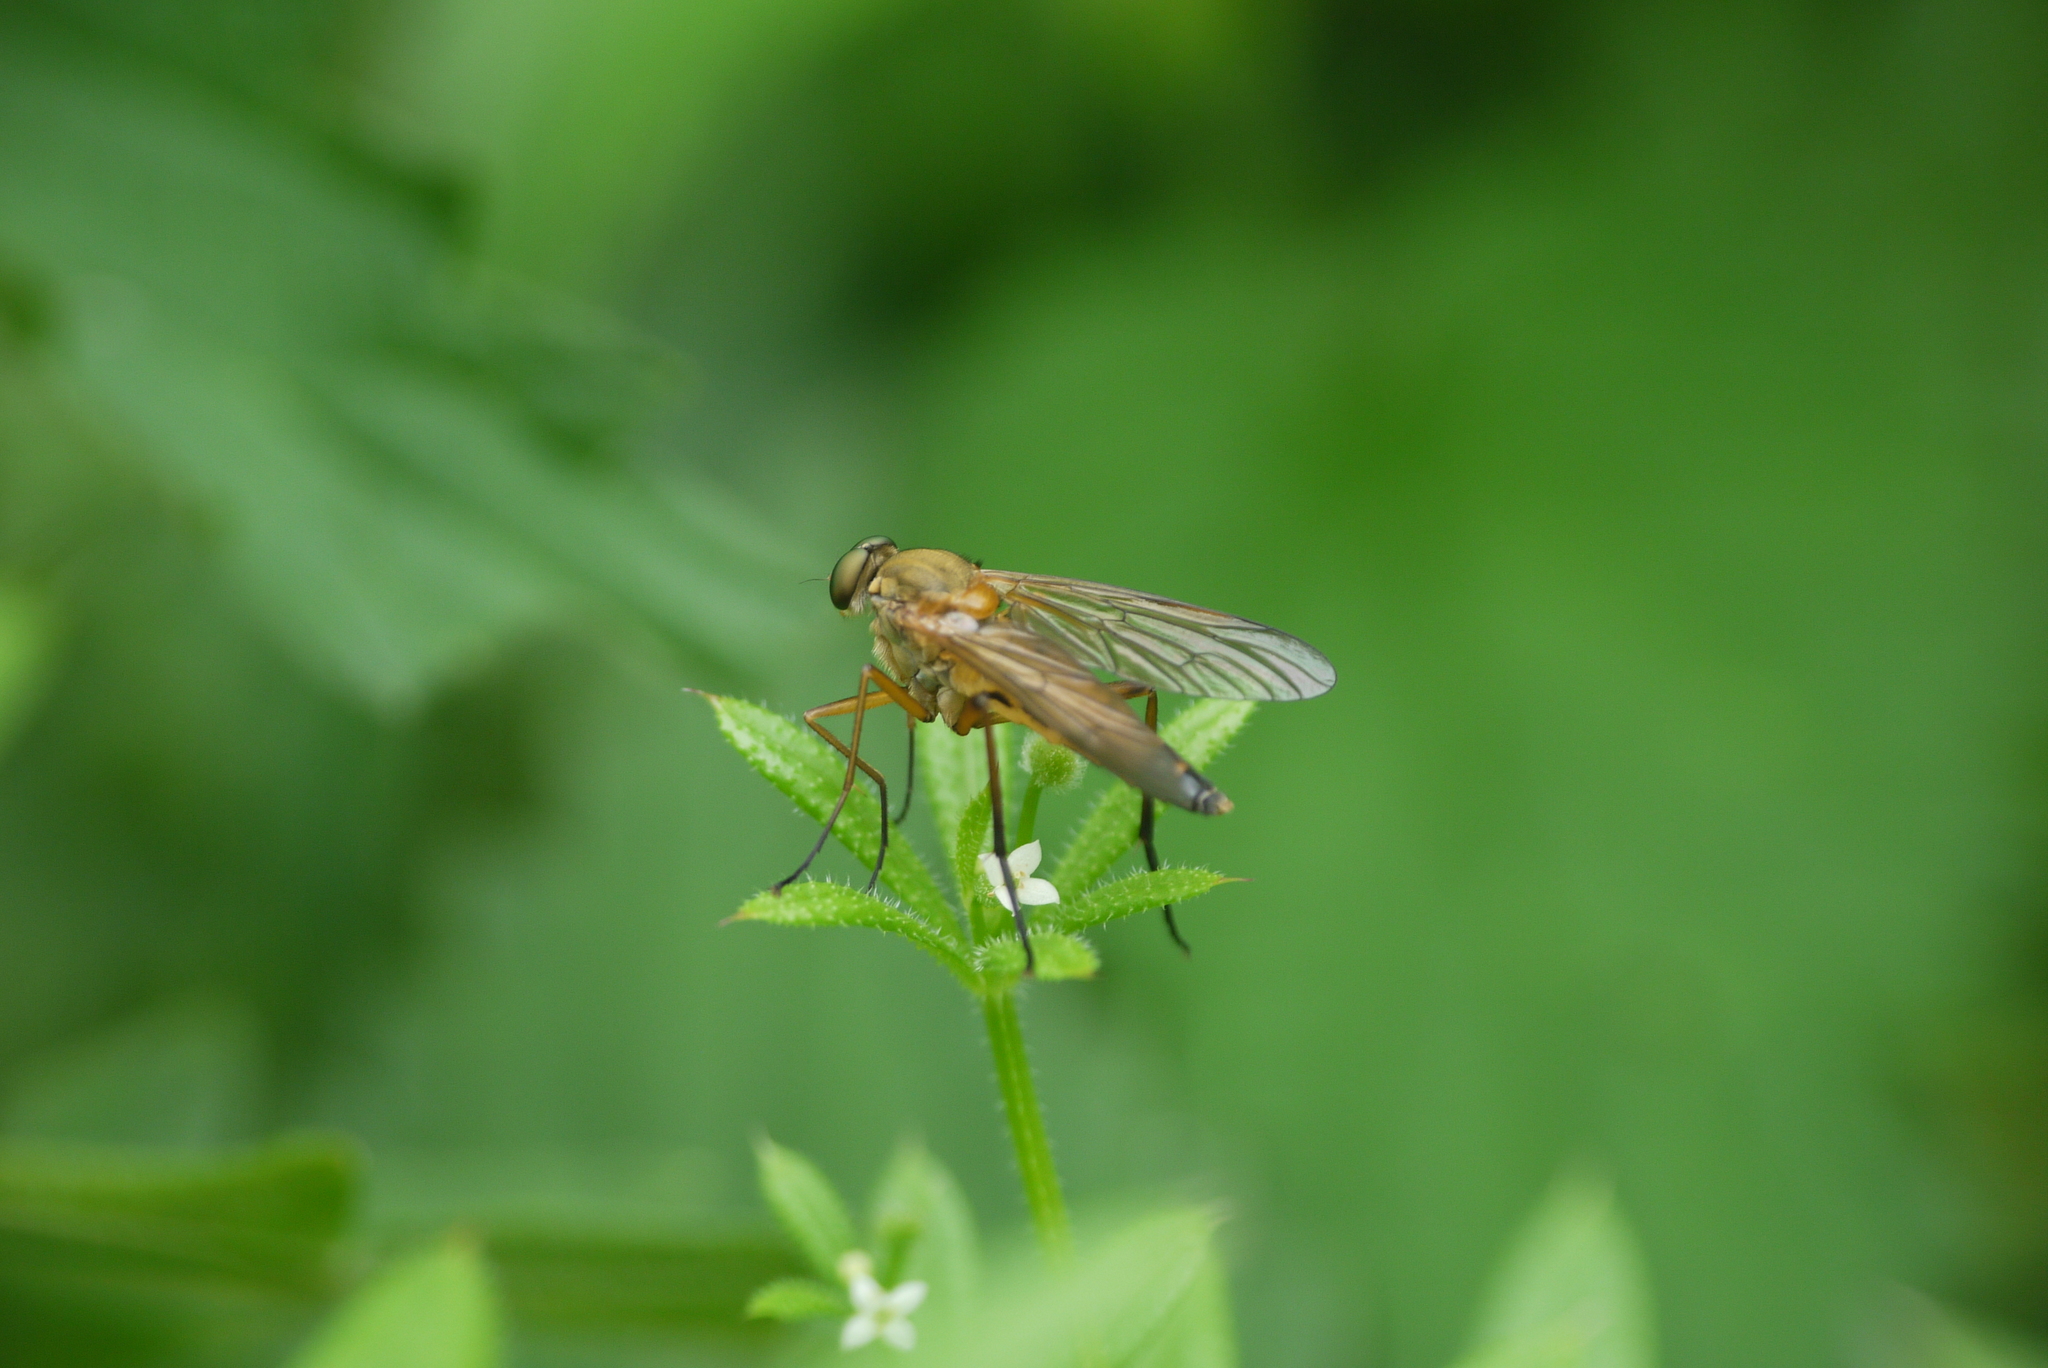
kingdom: Animalia
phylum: Arthropoda
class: Insecta
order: Diptera
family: Rhagionidae
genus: Rhagio
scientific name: Rhagio tringaria
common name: Marsh snipefly
